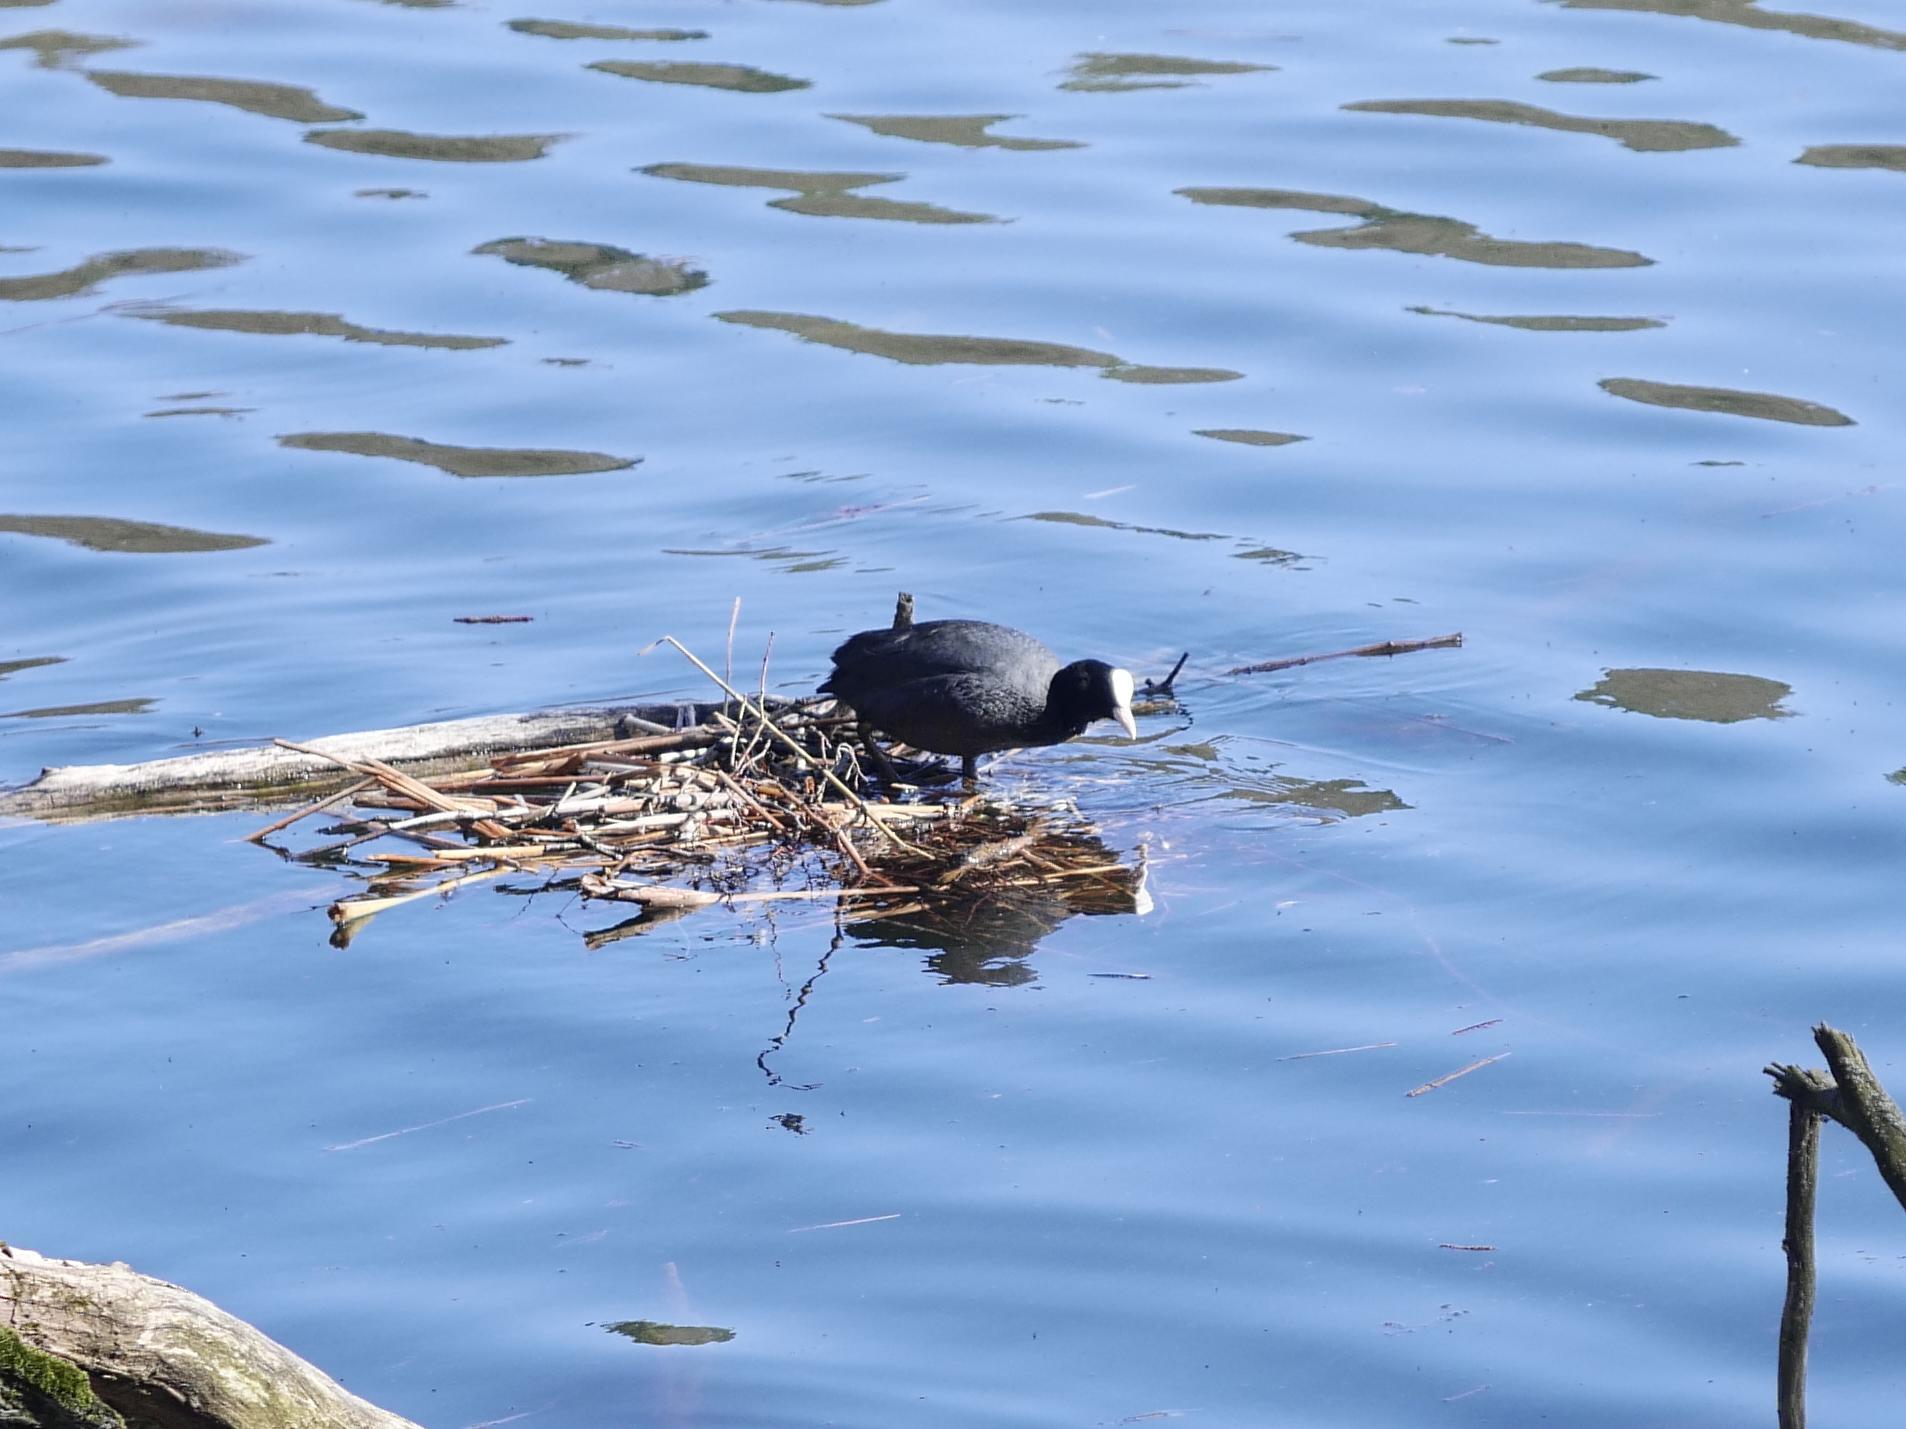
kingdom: Animalia
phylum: Chordata
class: Aves
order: Gruiformes
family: Rallidae
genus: Fulica
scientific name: Fulica atra
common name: Eurasian coot
